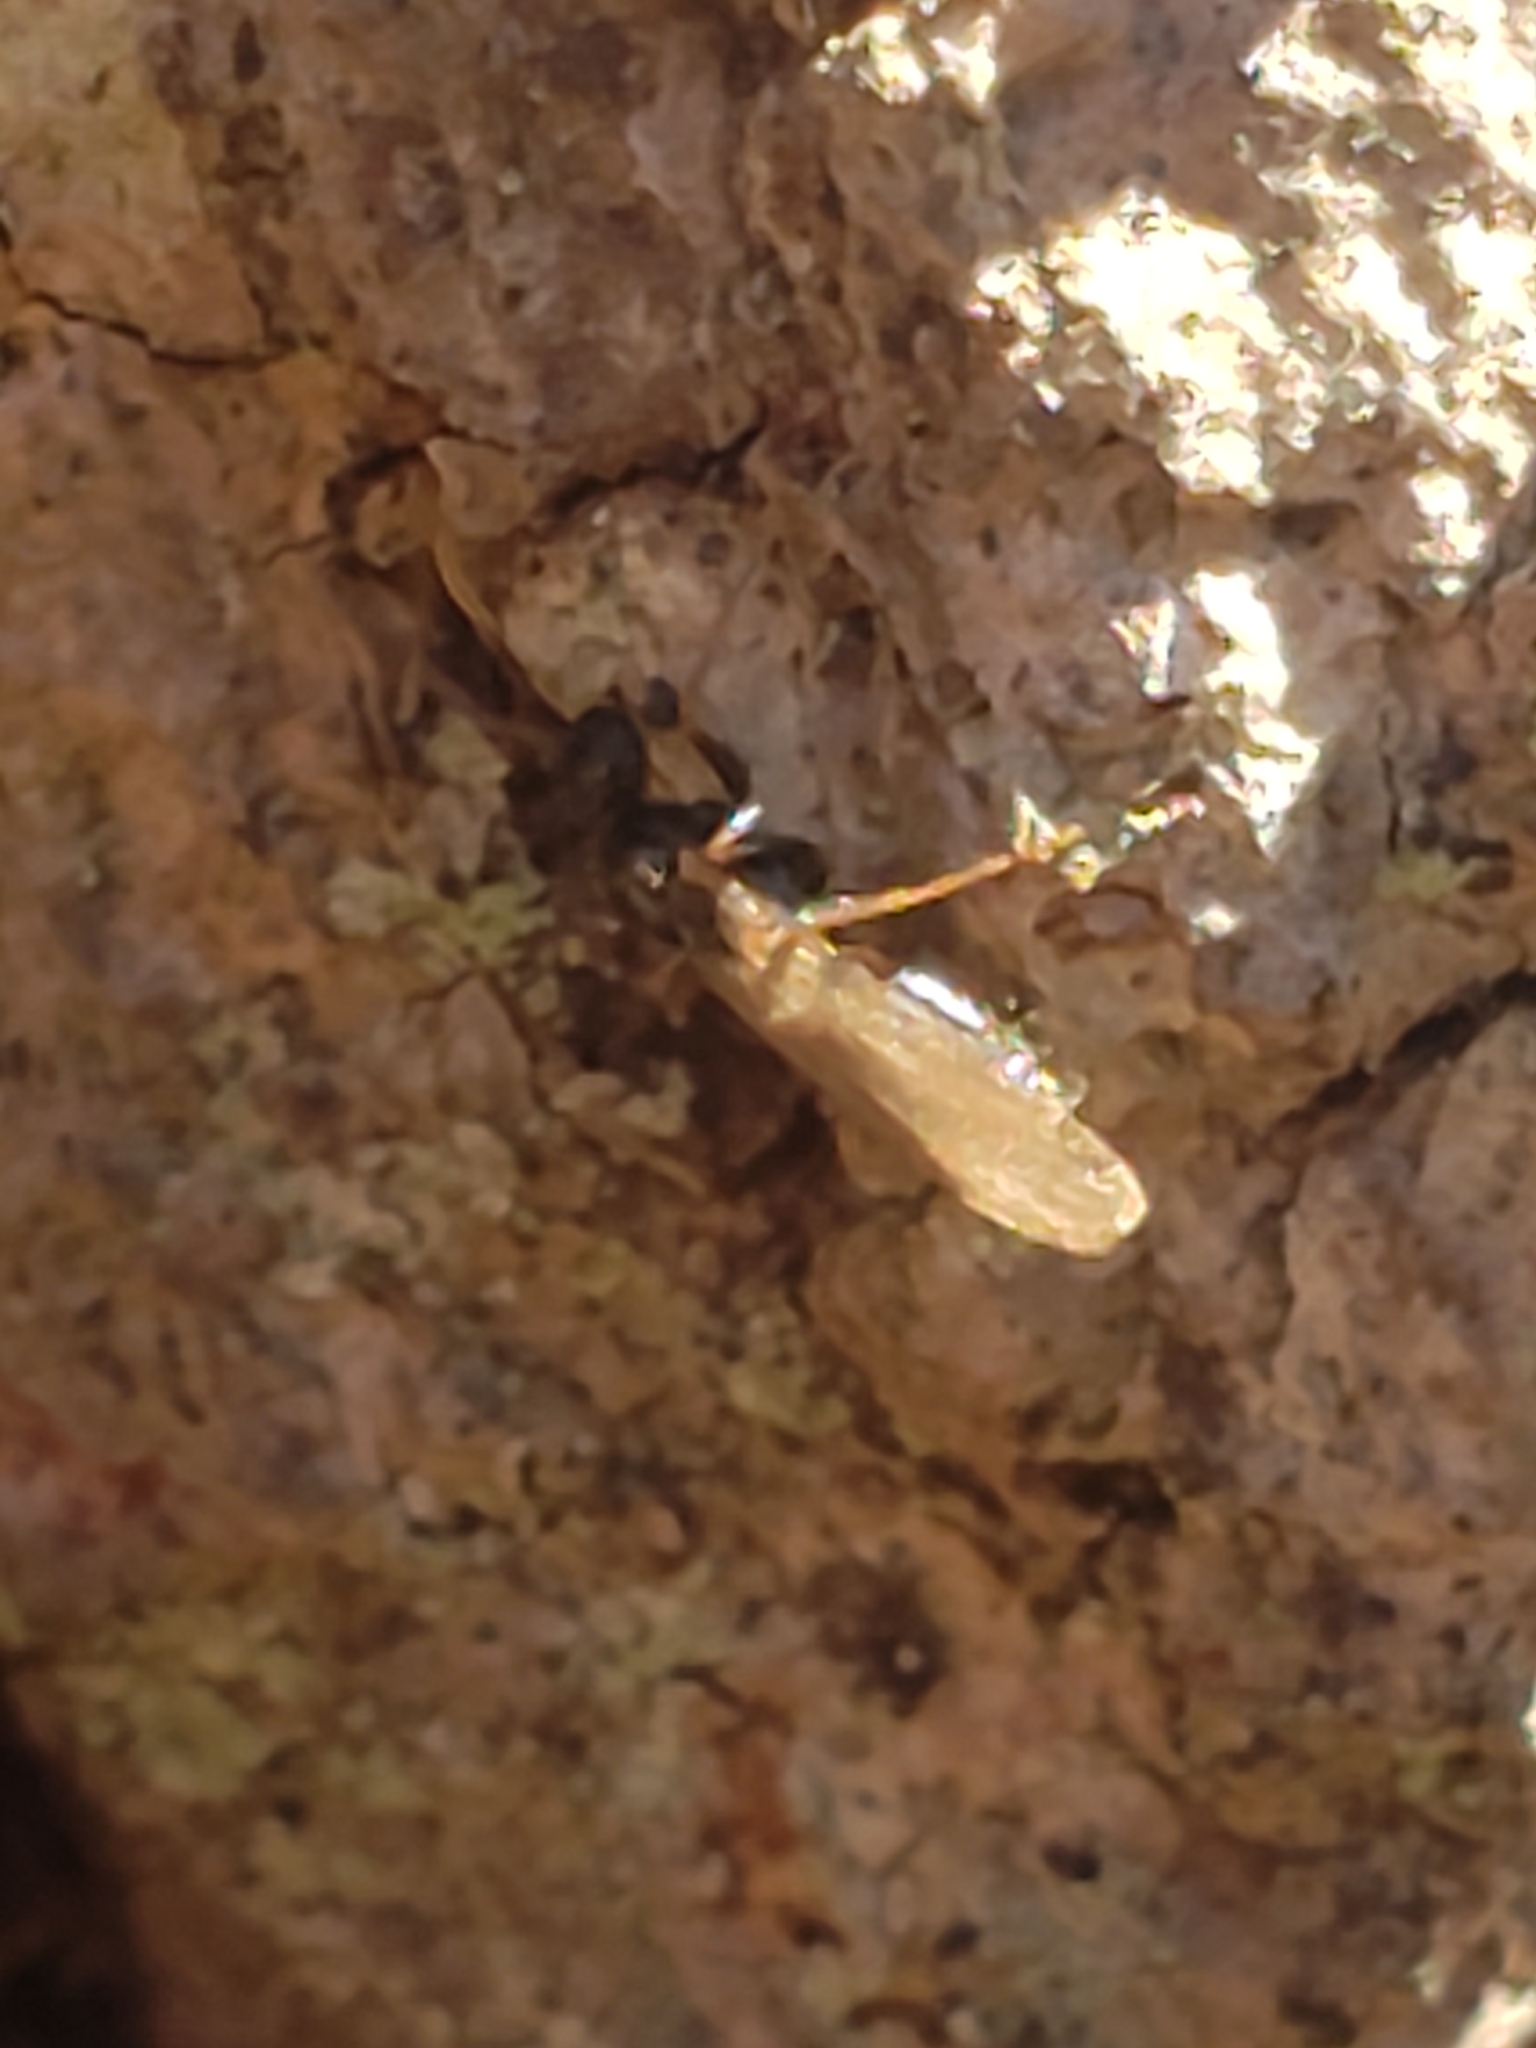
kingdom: Animalia
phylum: Arthropoda
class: Insecta
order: Hymenoptera
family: Formicidae
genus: Prenolepis
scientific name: Prenolepis imparis
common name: Small honey ant
